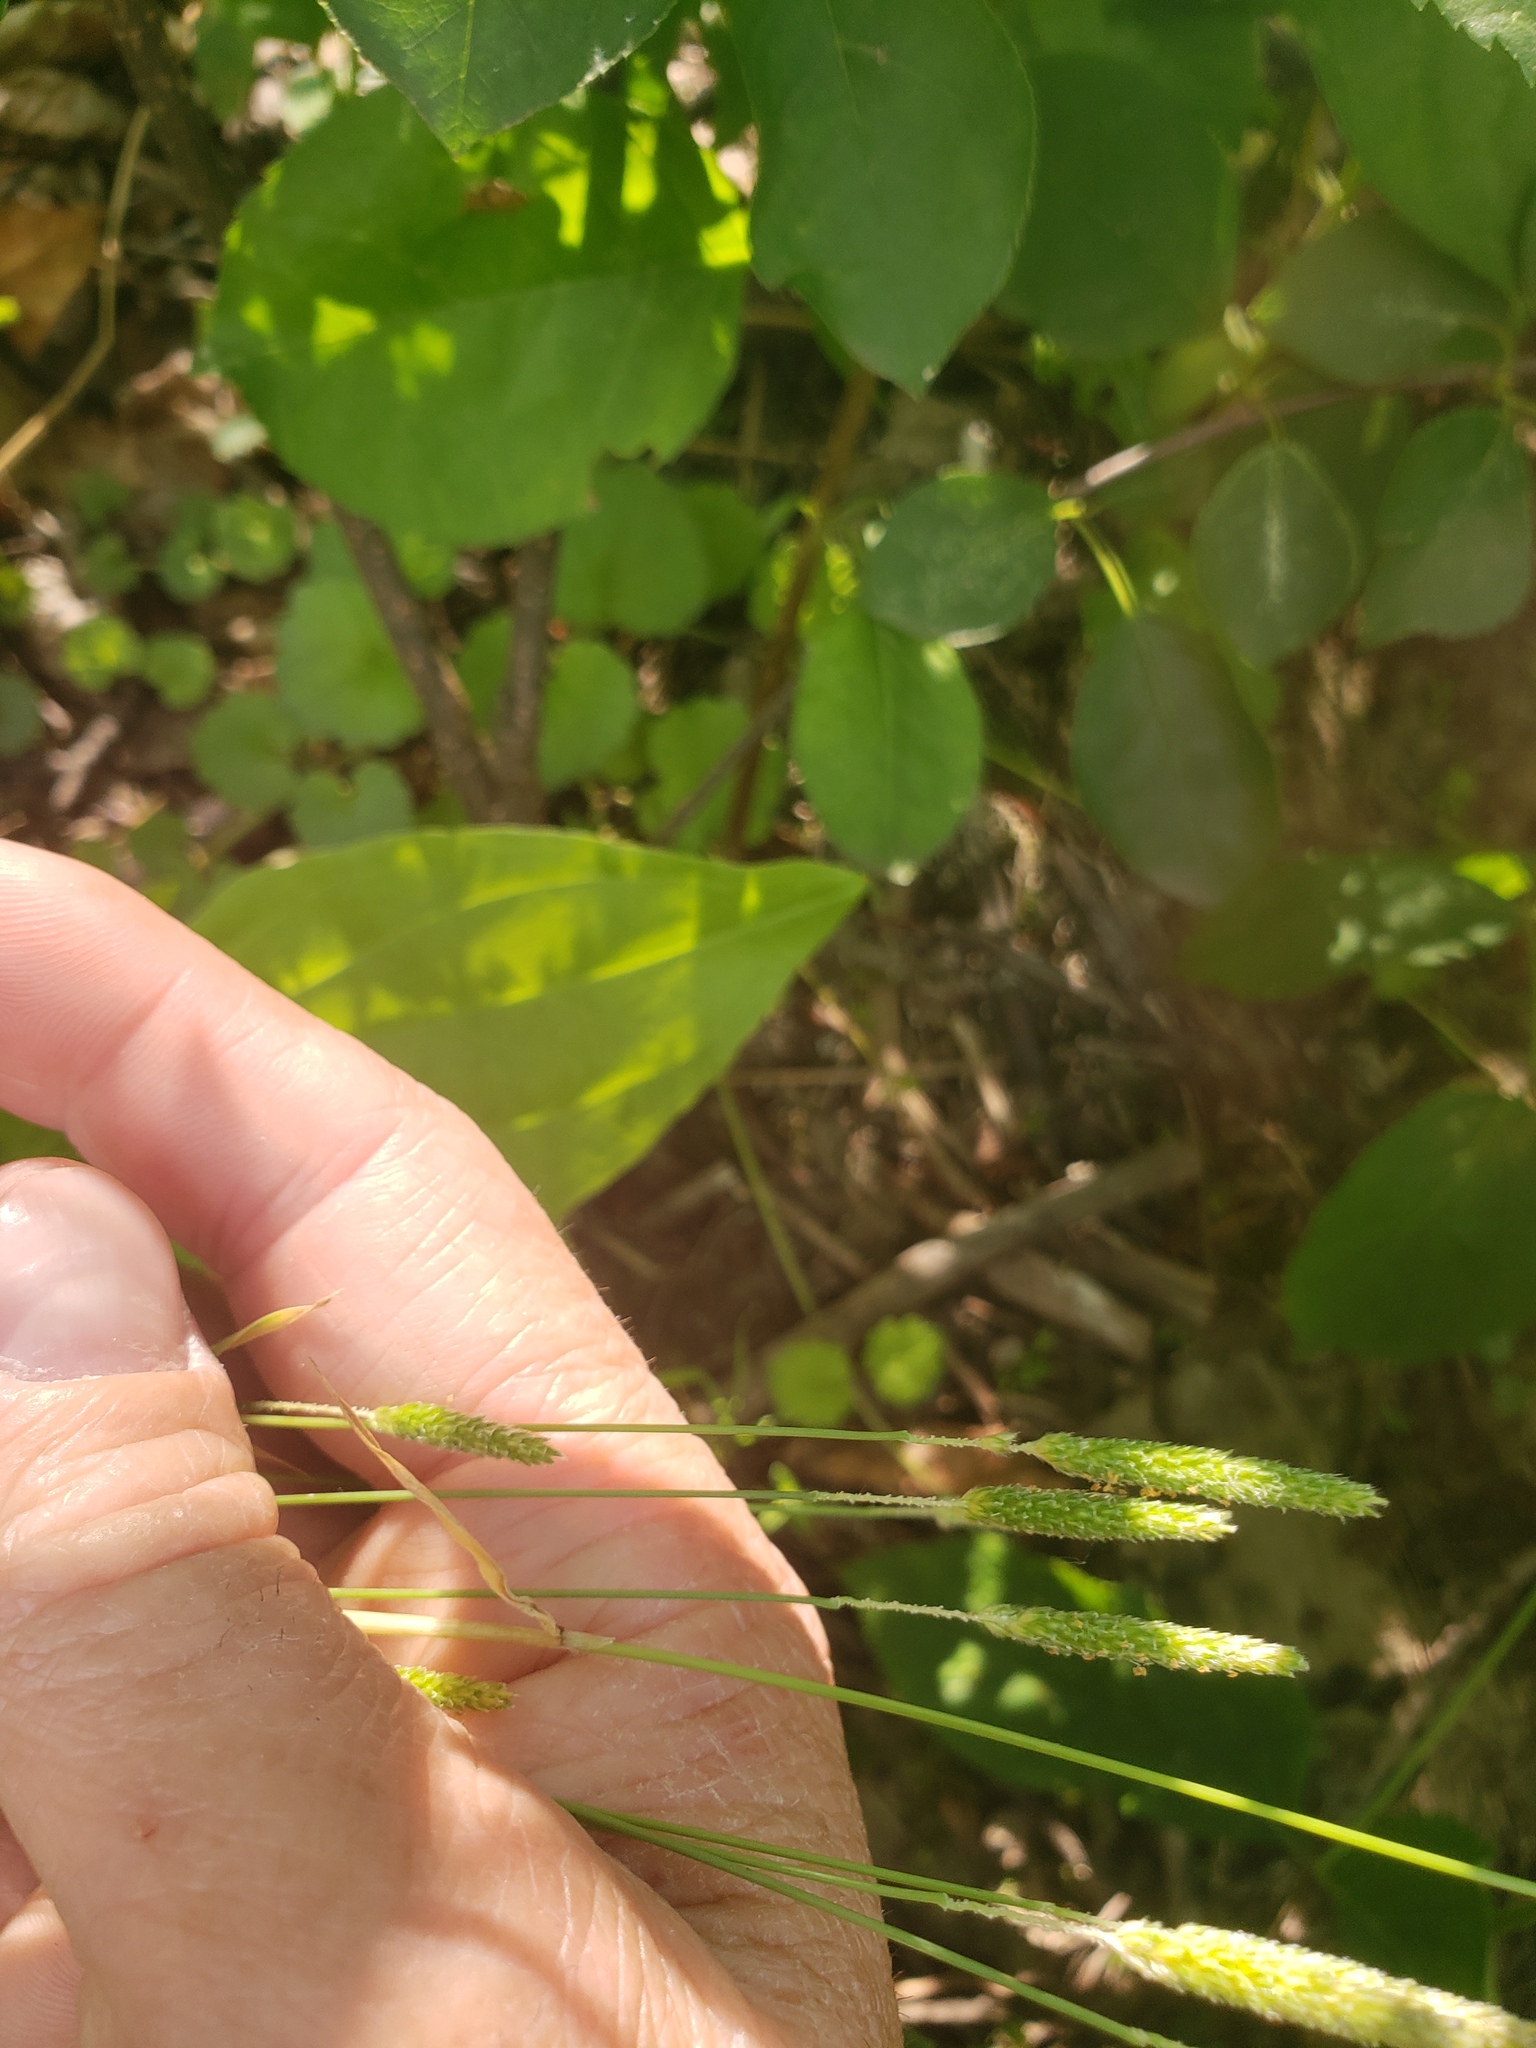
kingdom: Plantae
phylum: Tracheophyta
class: Liliopsida
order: Poales
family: Poaceae
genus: Alopecurus
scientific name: Alopecurus aequalis
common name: Orange foxtail
